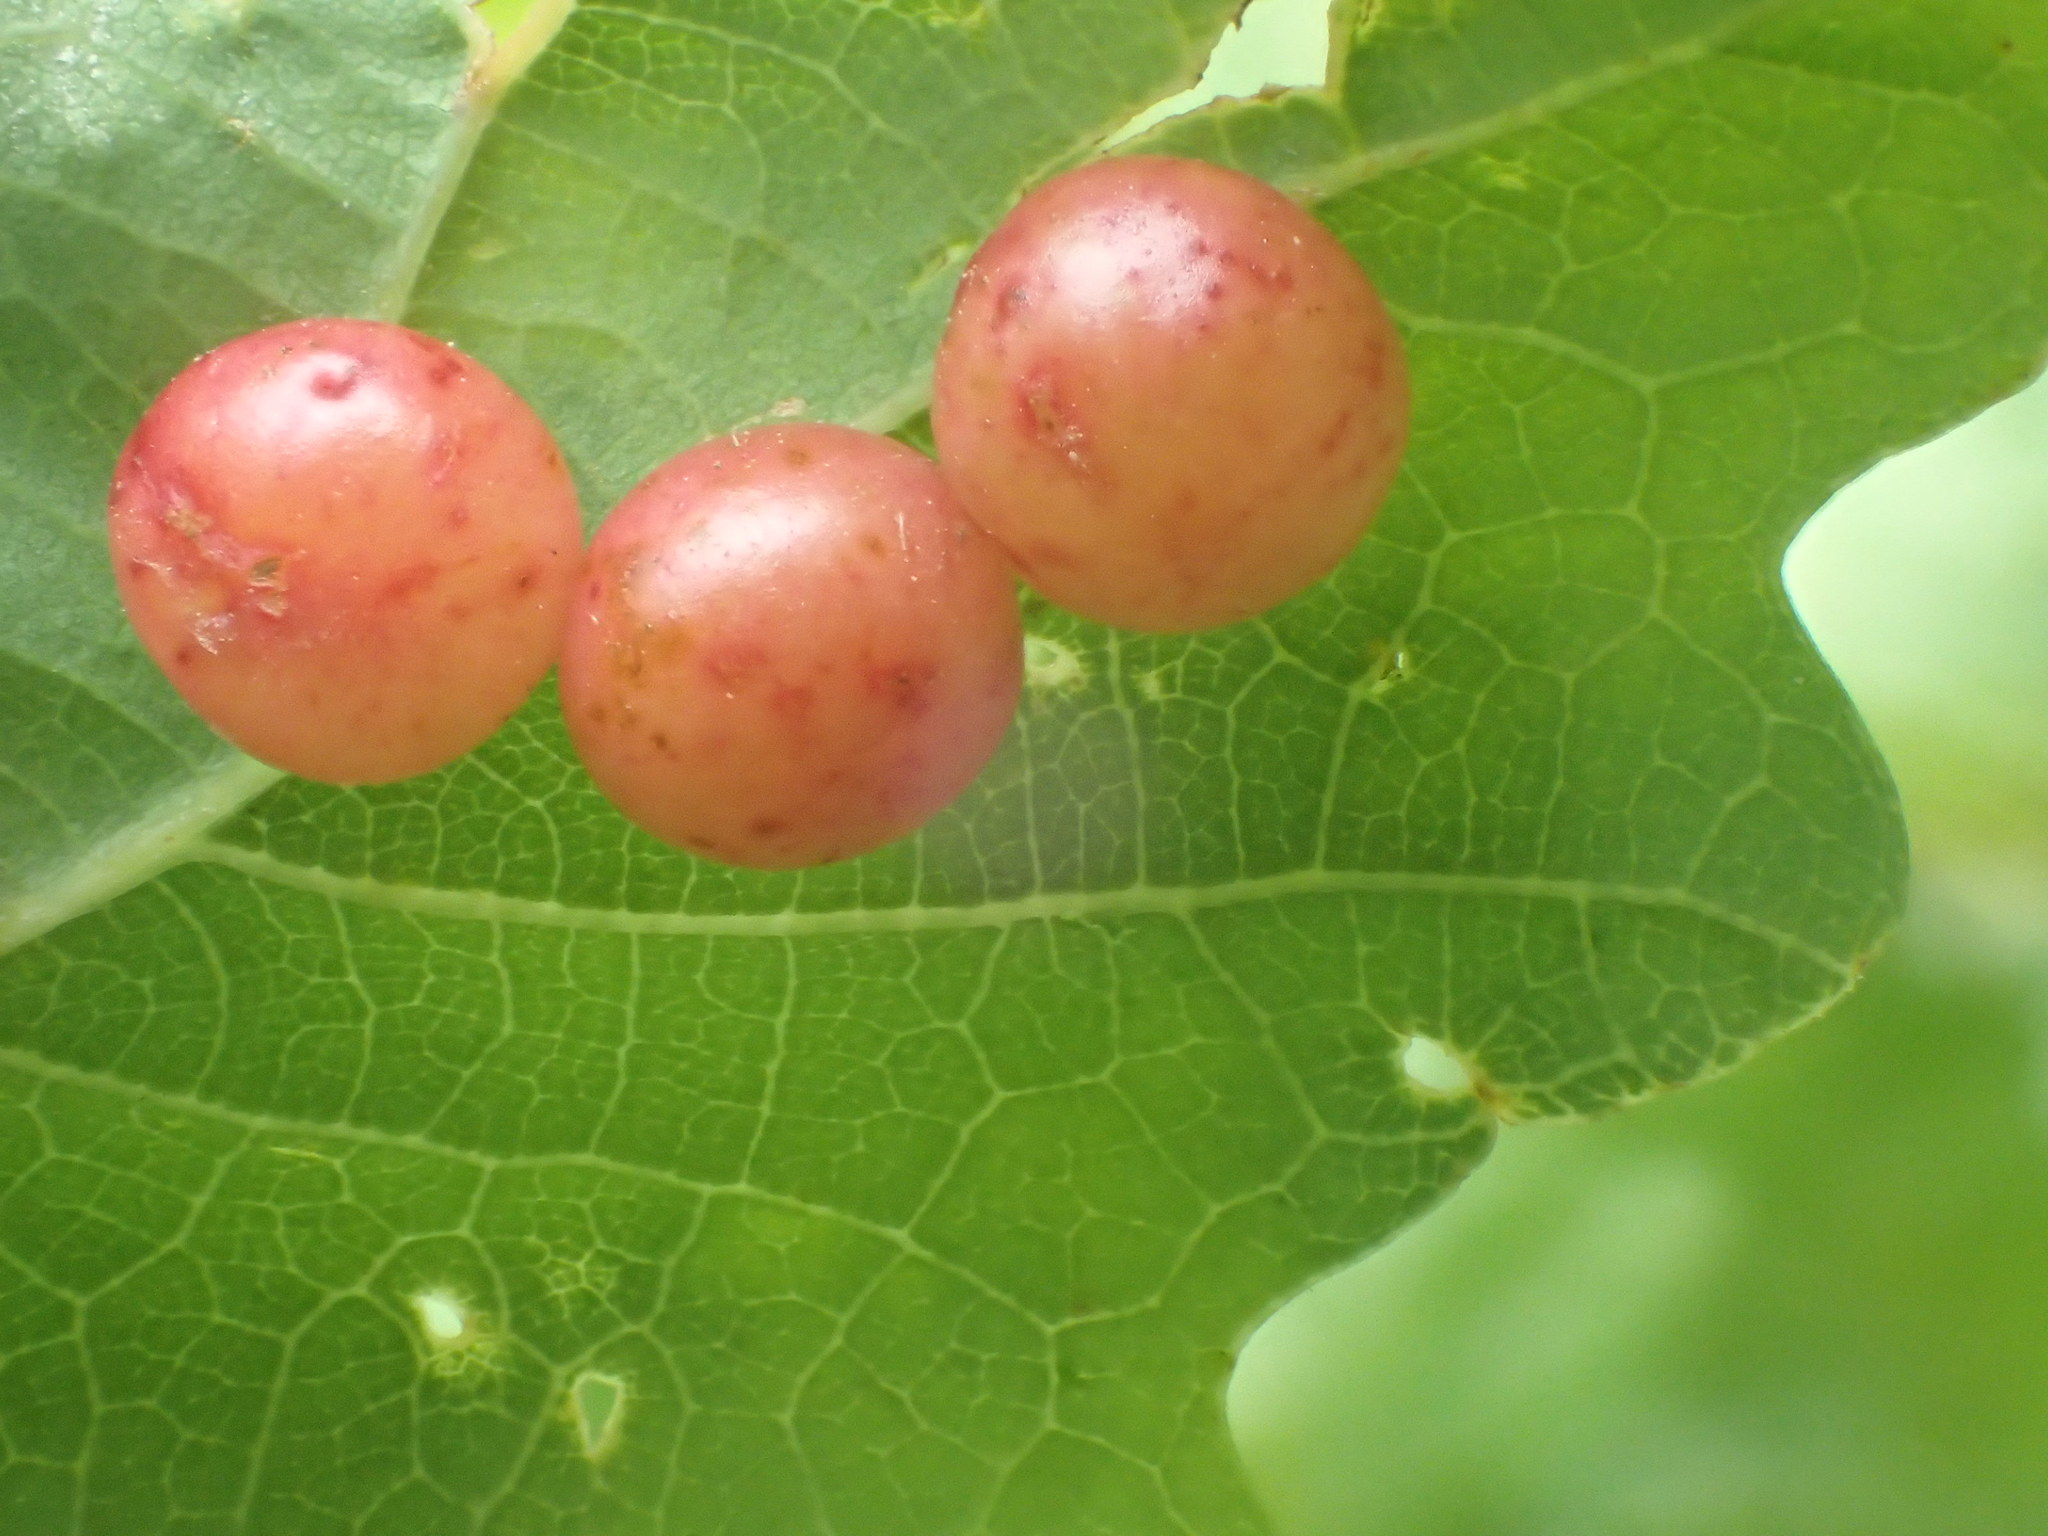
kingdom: Animalia
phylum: Arthropoda
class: Insecta
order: Hymenoptera
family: Cynipidae
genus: Cynips
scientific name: Cynips divisa
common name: Red currant gall
